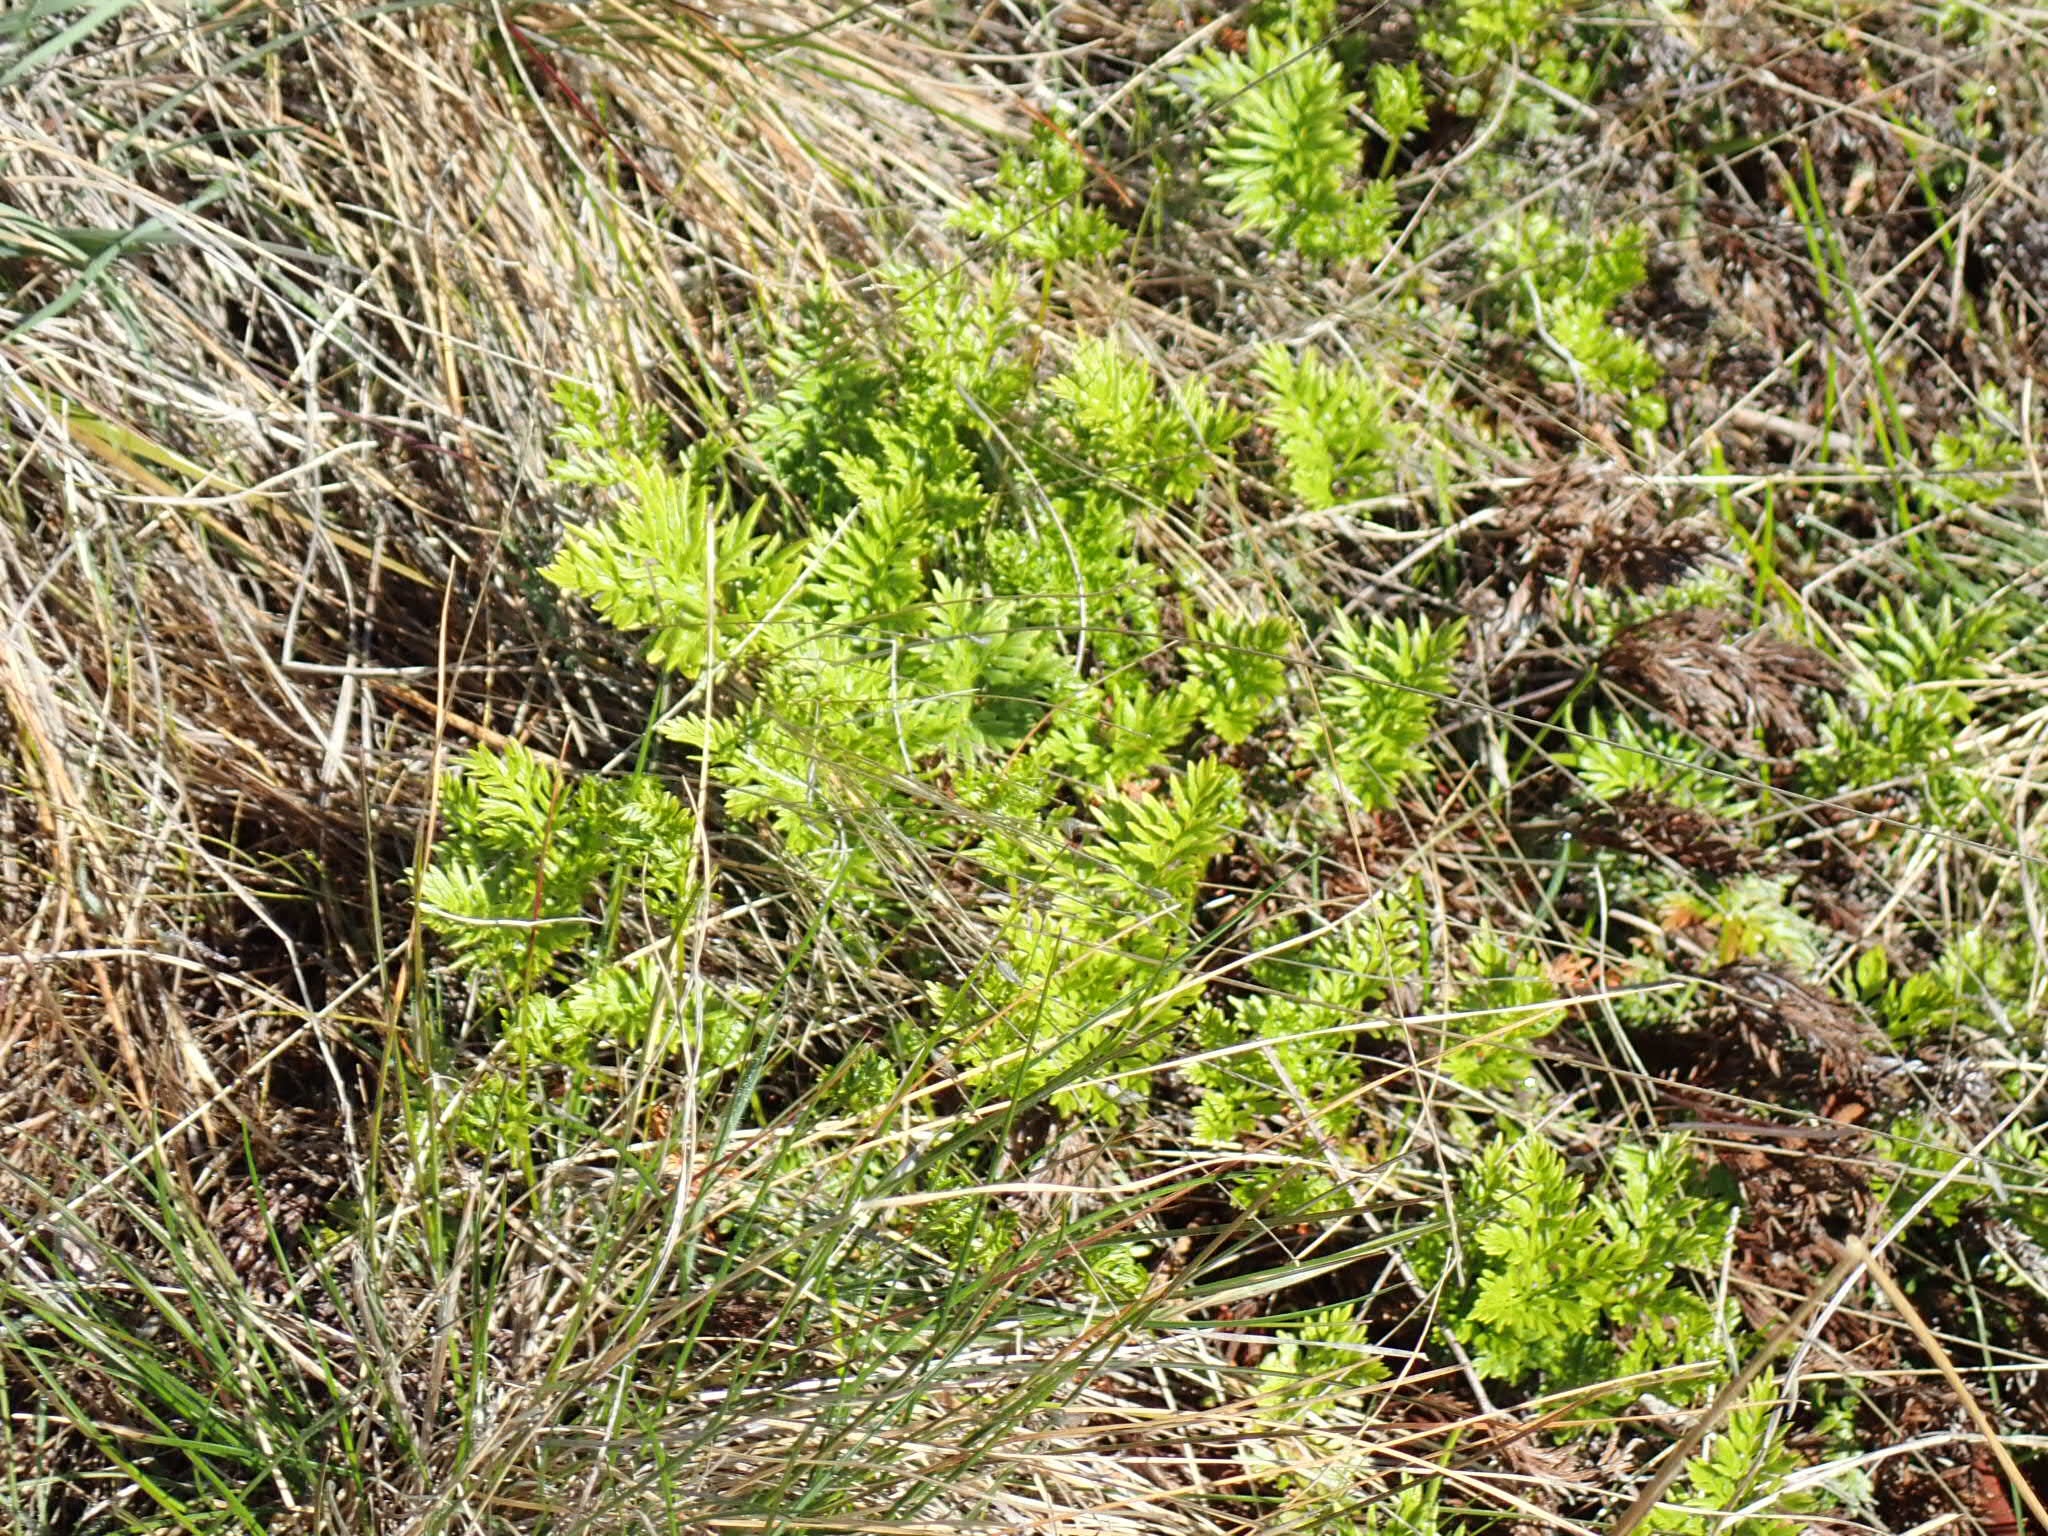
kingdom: Plantae
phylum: Tracheophyta
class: Polypodiopsida
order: Polypodiales
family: Pteridaceae
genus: Aspidotis
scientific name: Aspidotis densa
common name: Indian's dream
